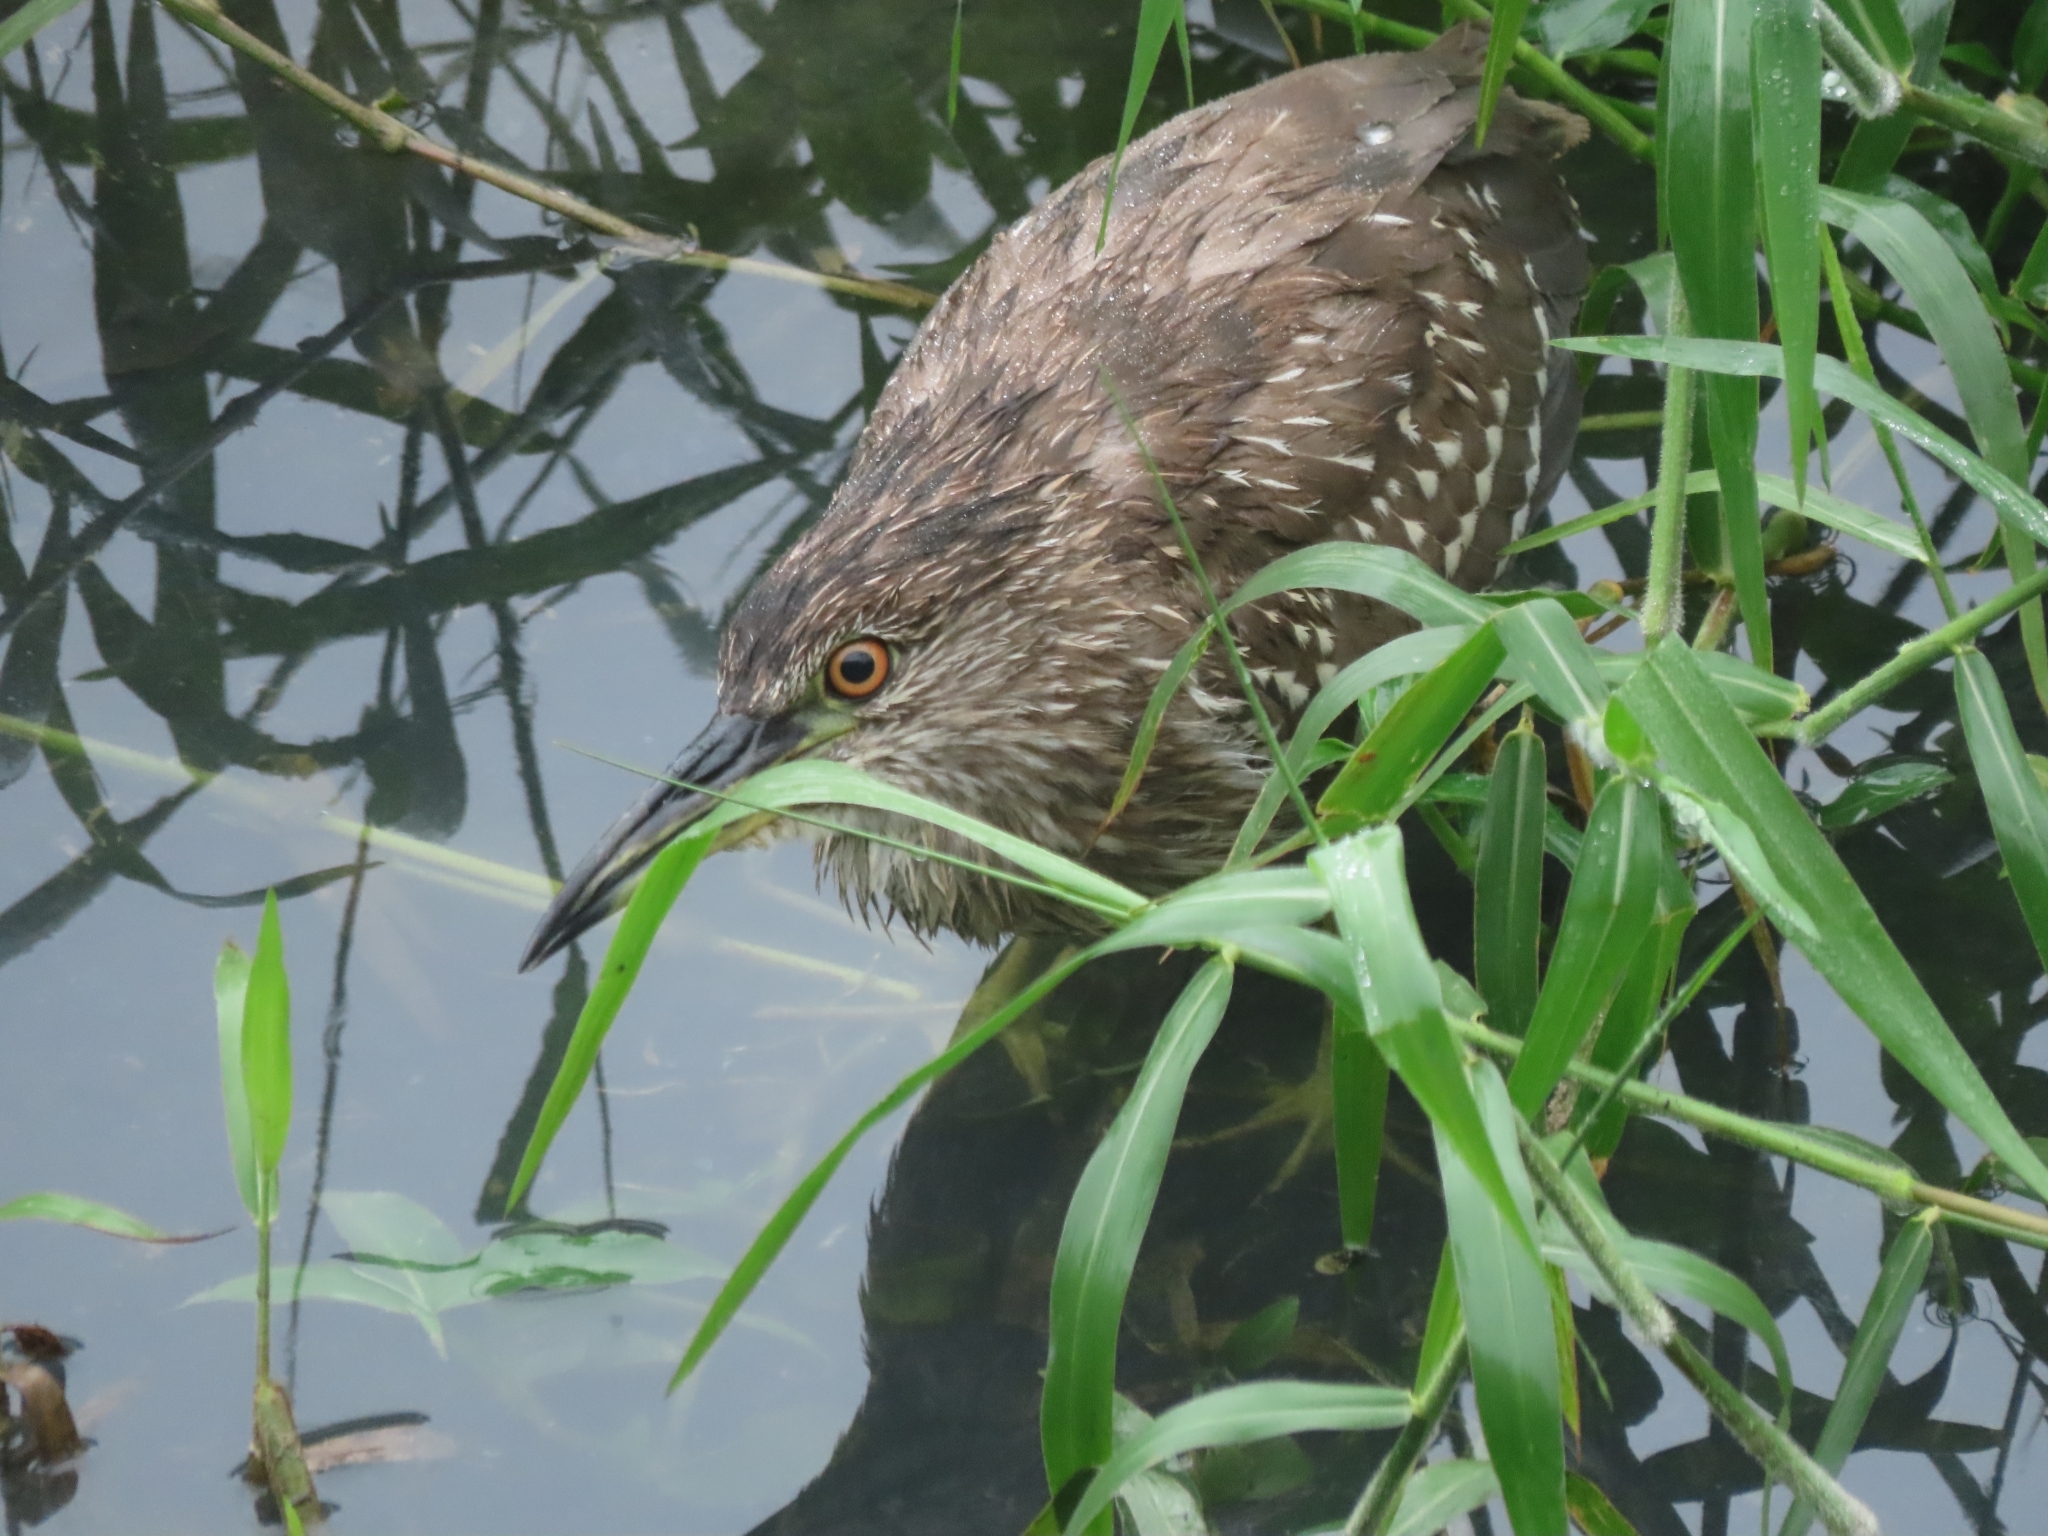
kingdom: Animalia
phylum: Chordata
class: Aves
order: Pelecaniformes
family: Ardeidae
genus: Nycticorax
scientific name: Nycticorax nycticorax
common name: Black-crowned night heron
